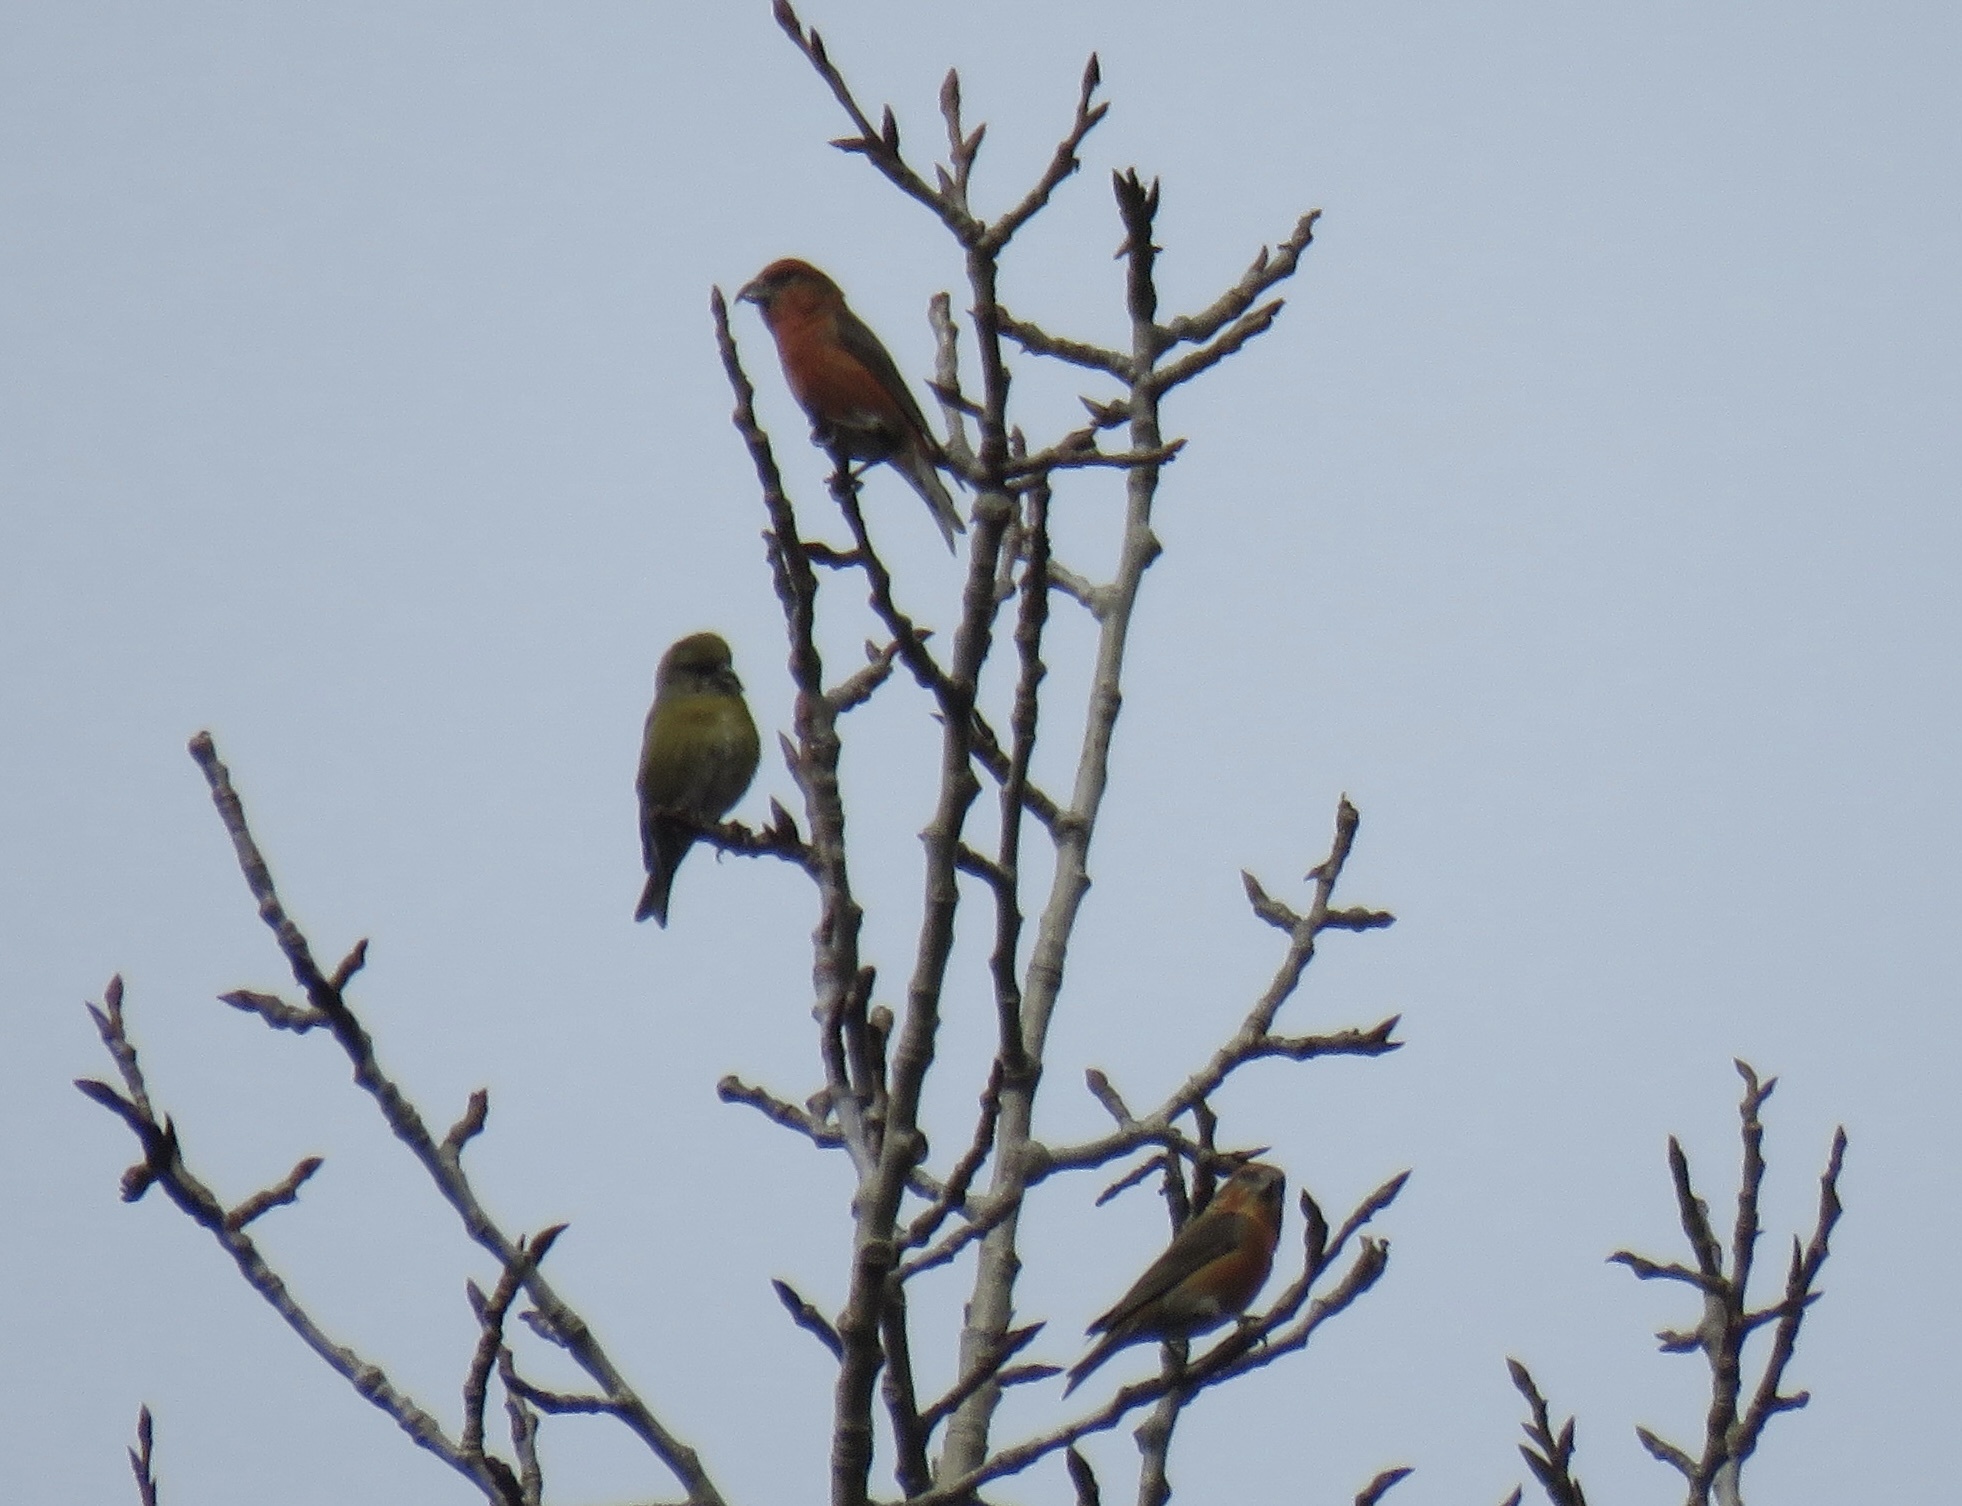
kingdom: Animalia
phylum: Chordata
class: Aves
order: Passeriformes
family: Fringillidae
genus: Loxia
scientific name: Loxia curvirostra
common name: Red crossbill
